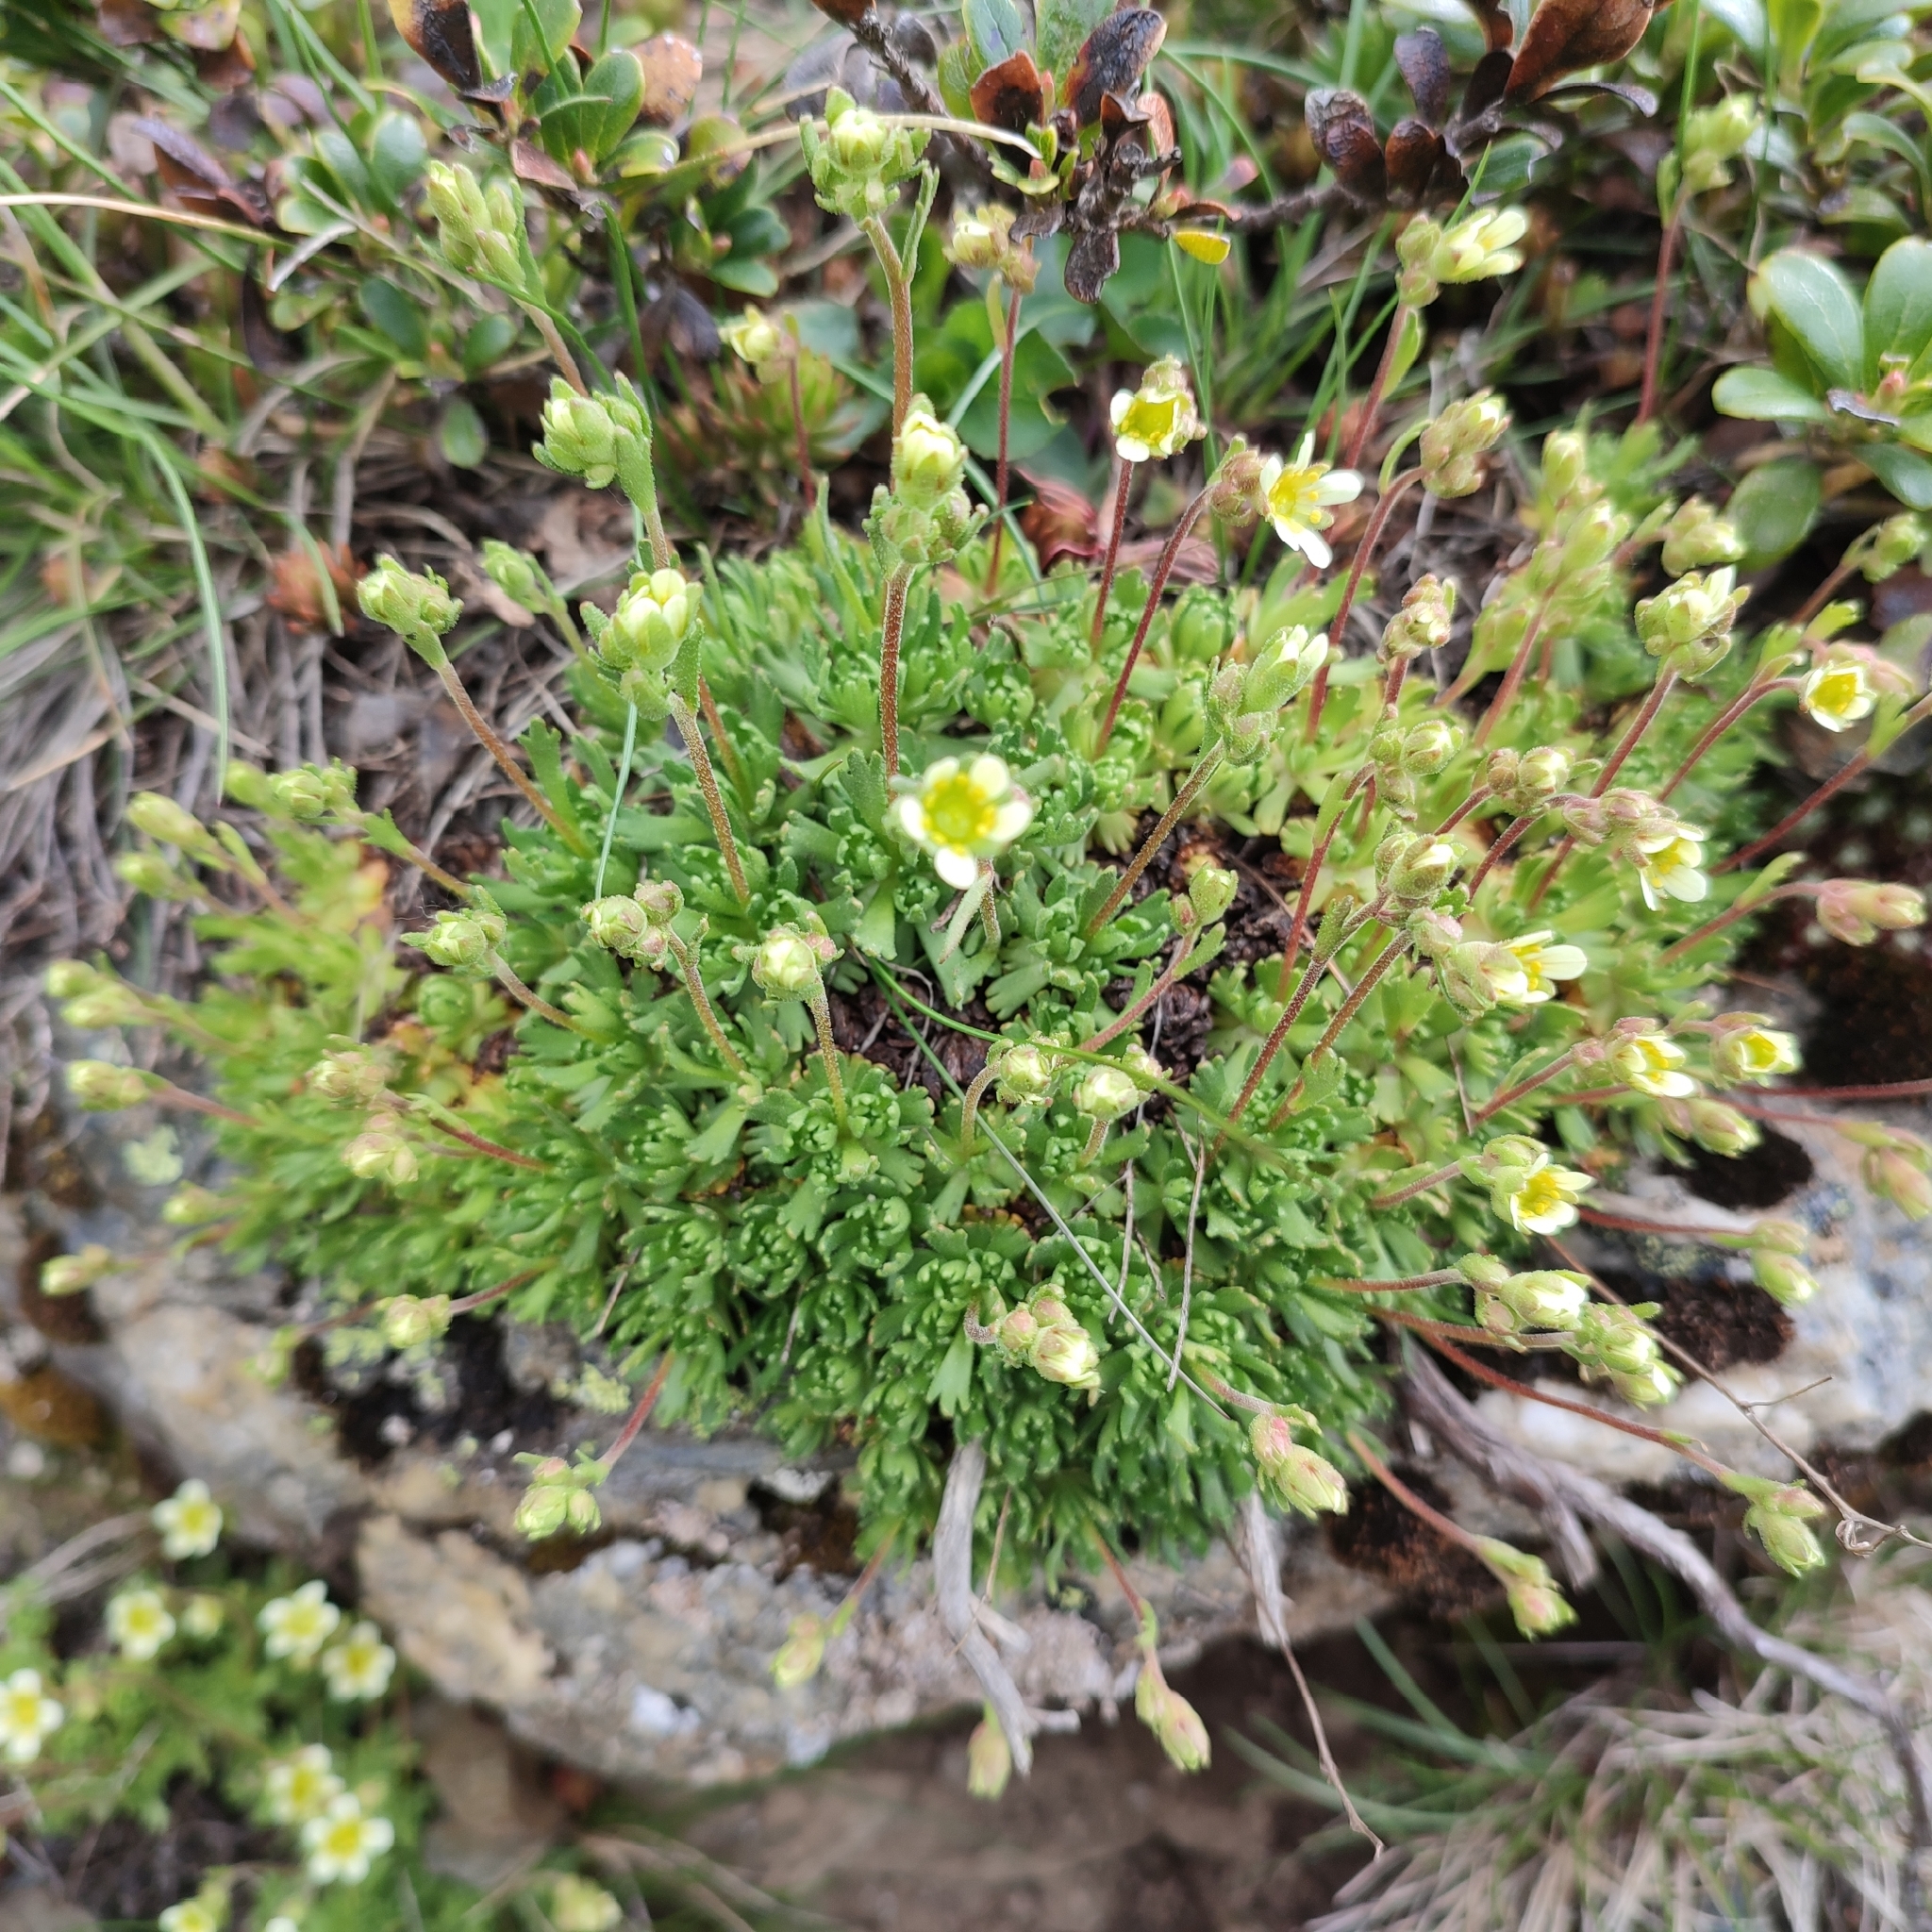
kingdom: Plantae
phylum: Tracheophyta
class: Magnoliopsida
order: Saxifragales
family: Saxifragaceae
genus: Saxifraga
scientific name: Saxifraga moschata
